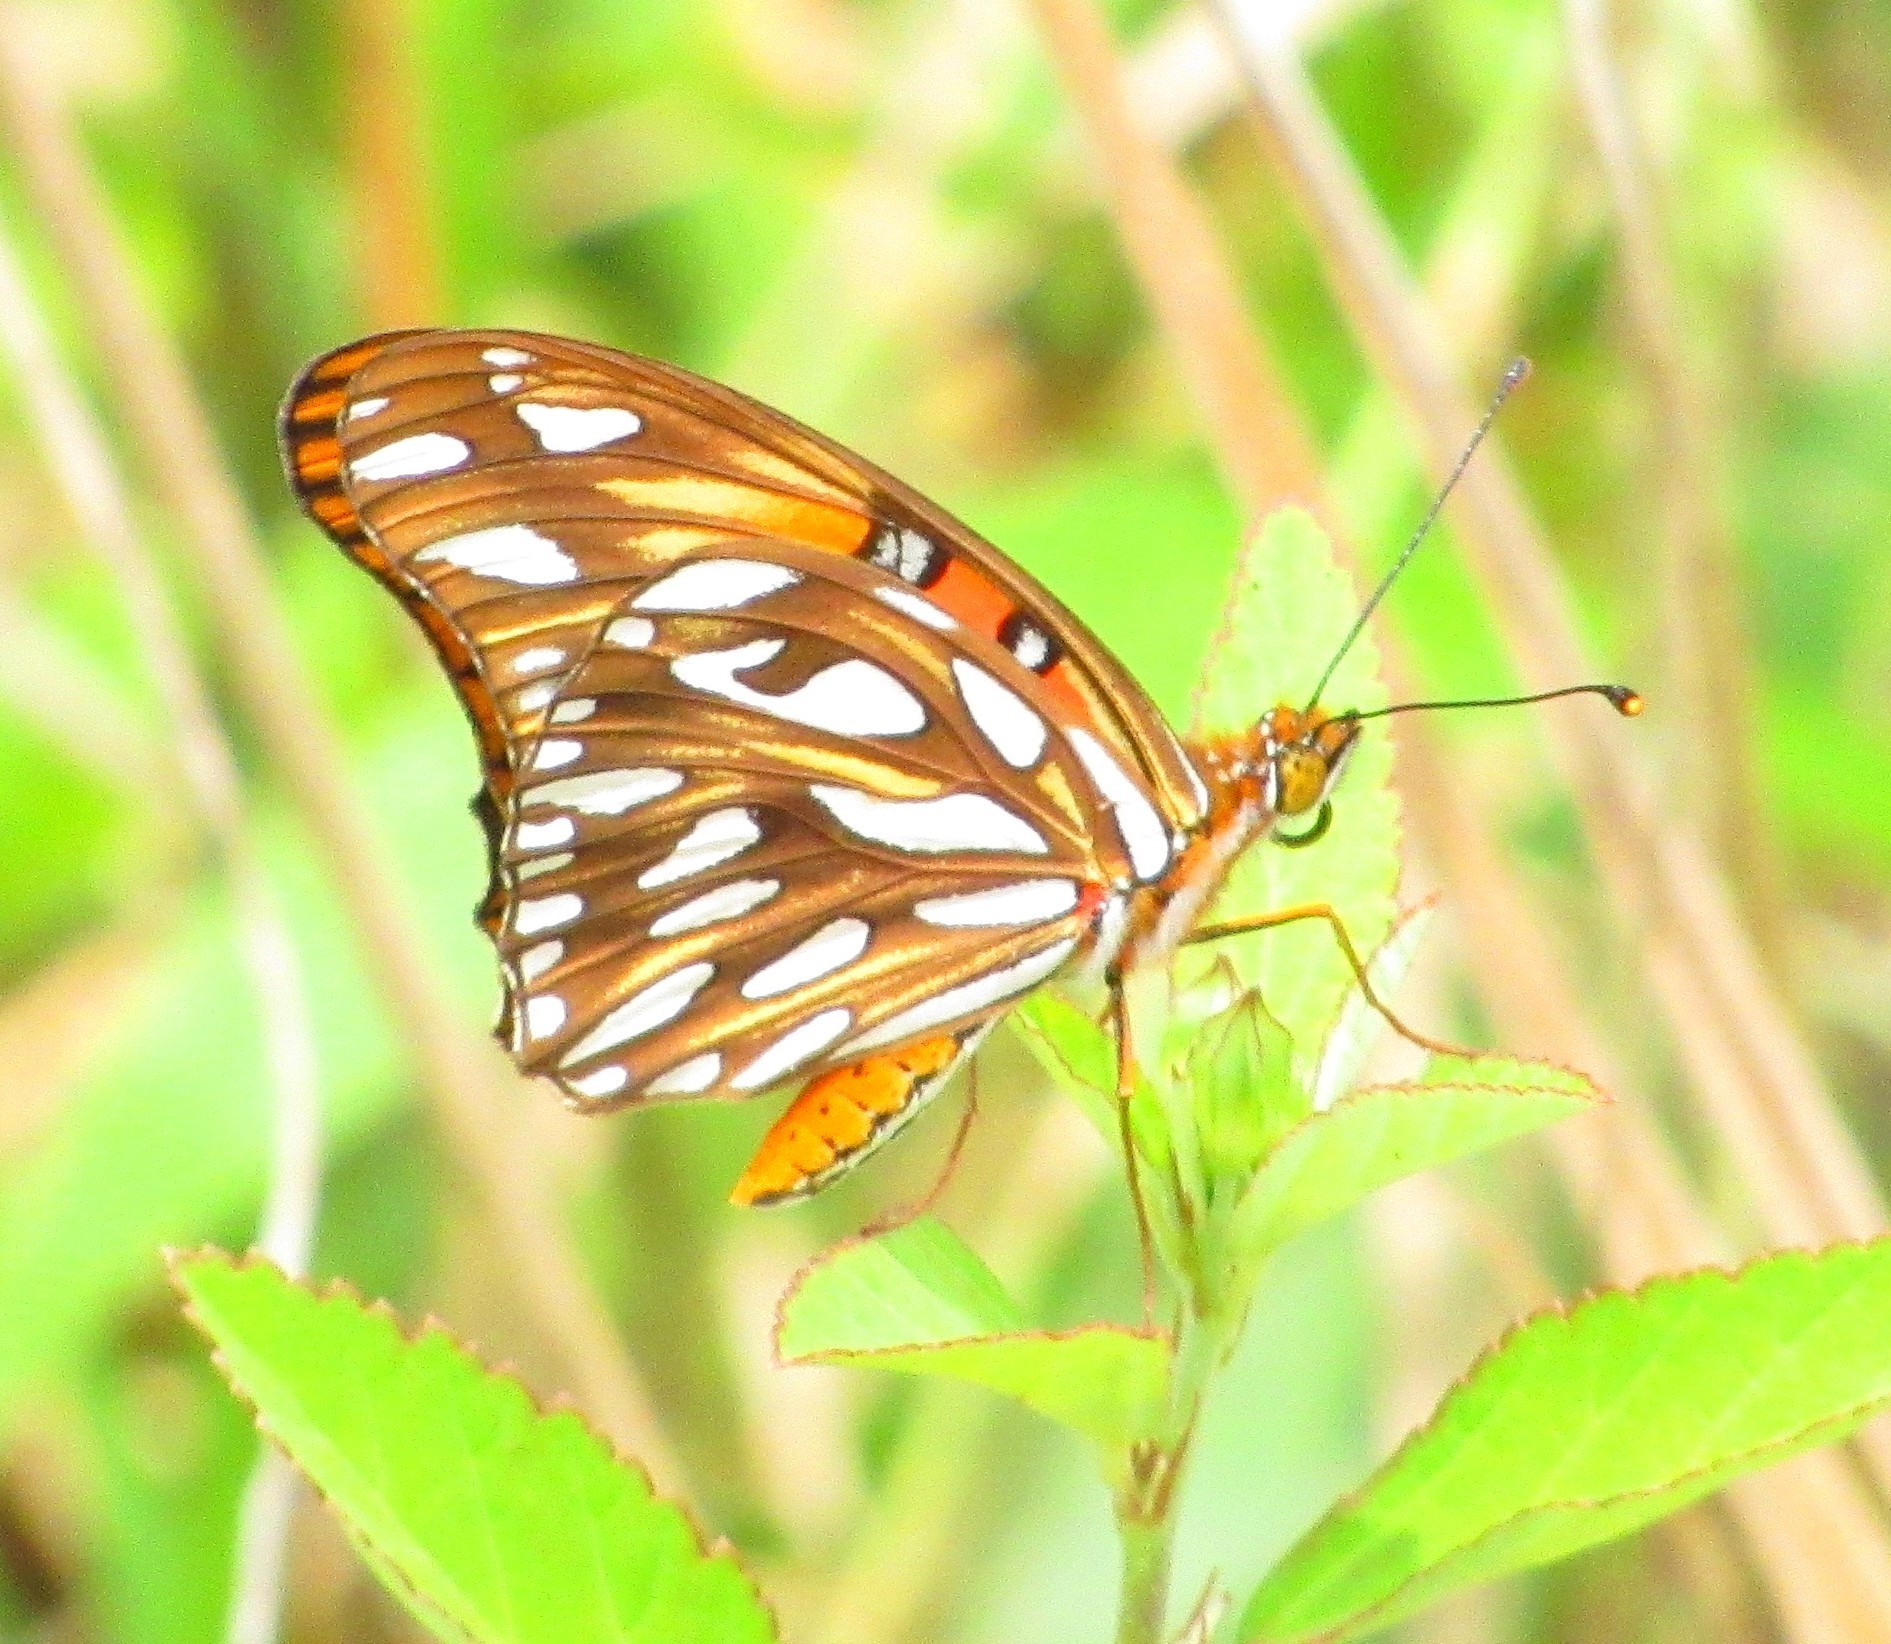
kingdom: Animalia
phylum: Arthropoda
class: Insecta
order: Lepidoptera
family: Nymphalidae
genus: Dione
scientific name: Dione vanillae
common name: Gulf fritillary
